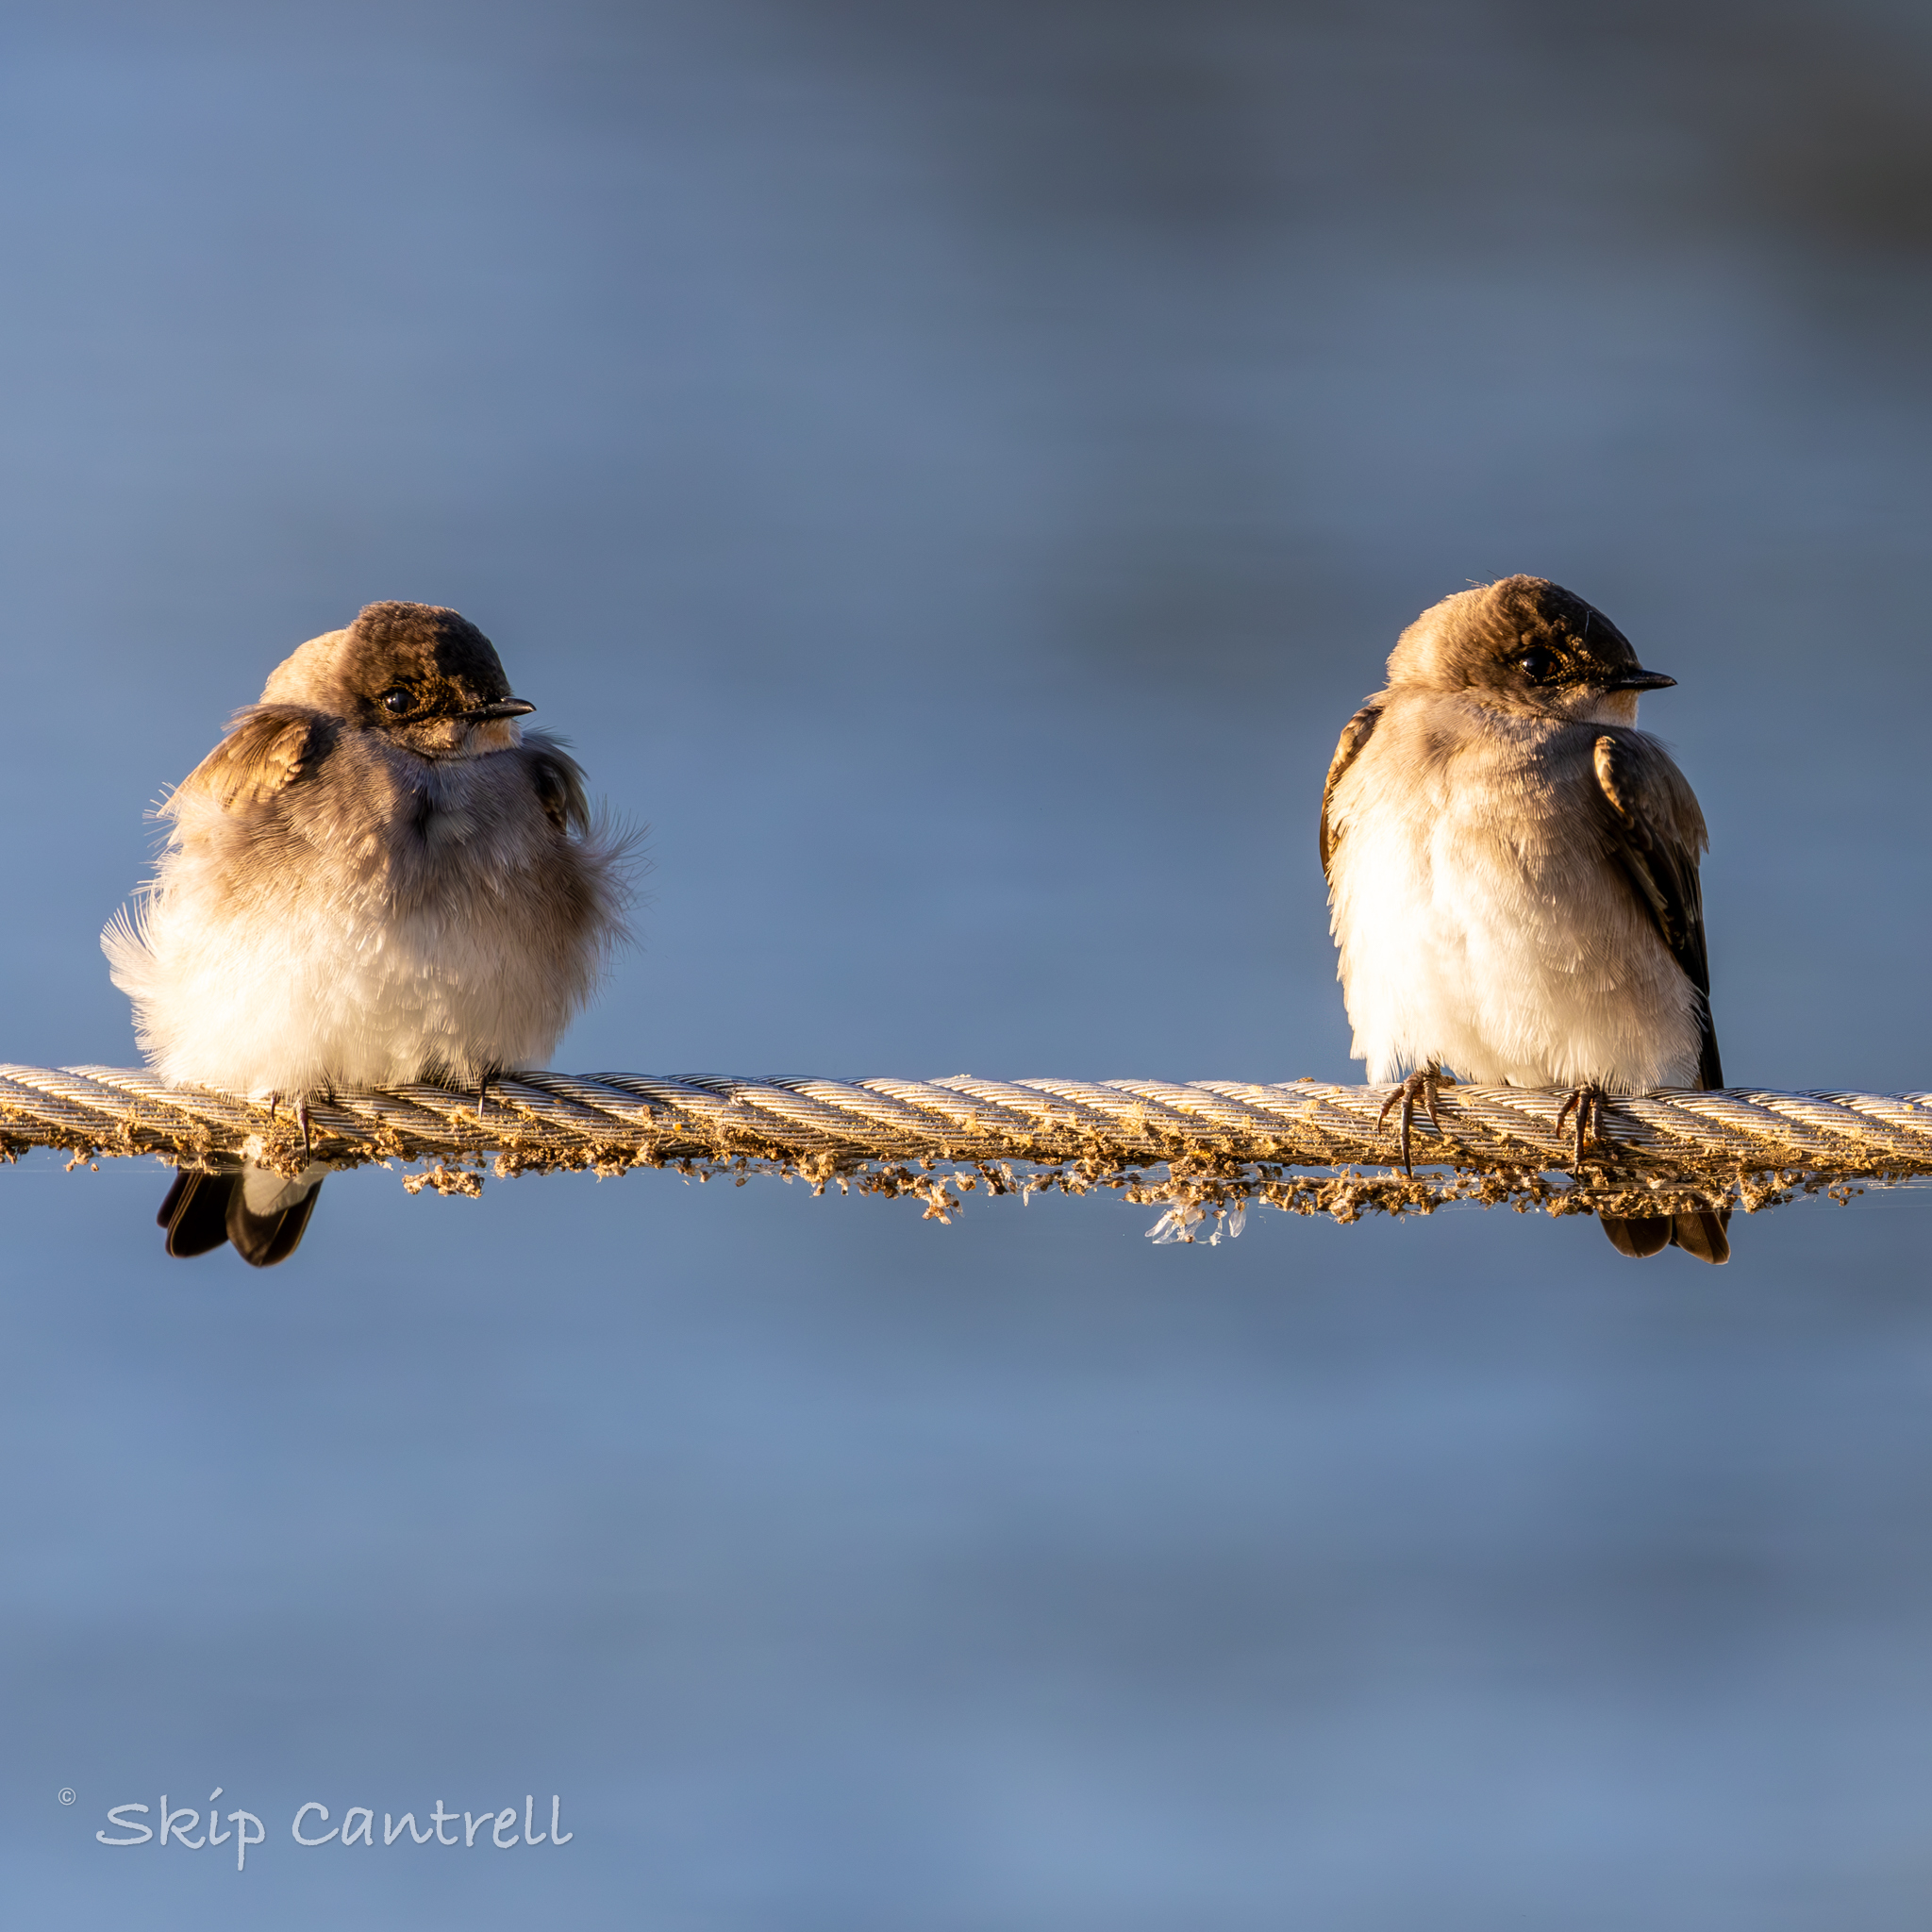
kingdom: Animalia
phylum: Chordata
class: Aves
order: Passeriformes
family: Hirundinidae
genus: Stelgidopteryx
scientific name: Stelgidopteryx serripennis
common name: Northern rough-winged swallow
